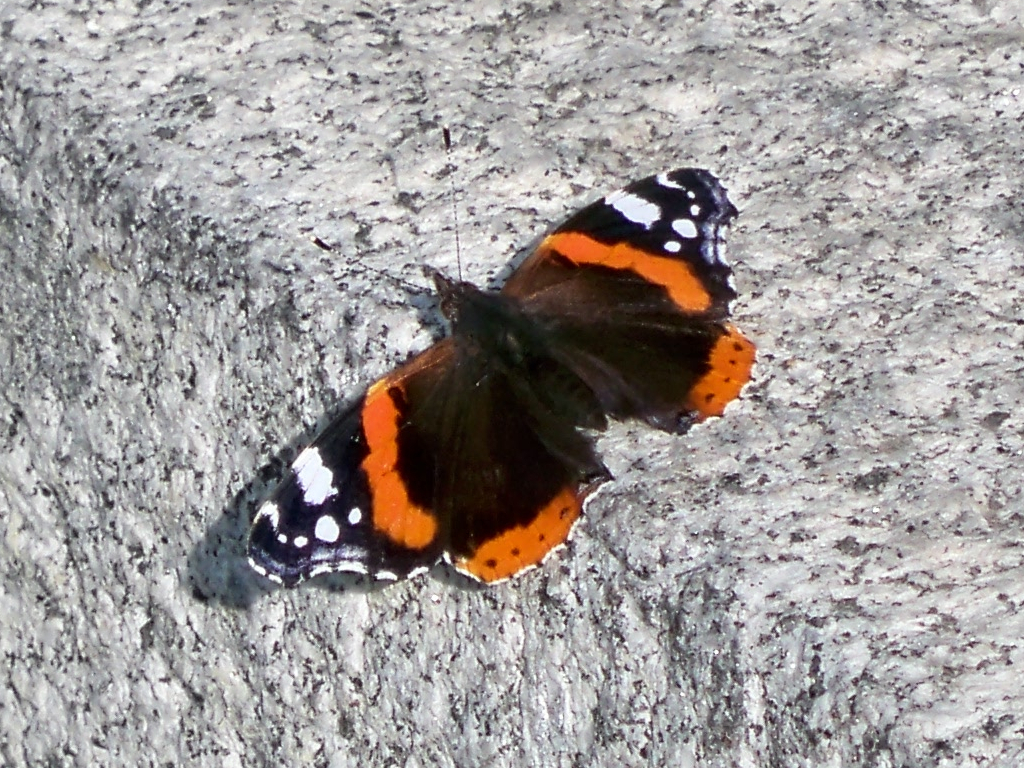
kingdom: Animalia
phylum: Arthropoda
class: Insecta
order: Lepidoptera
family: Nymphalidae
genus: Vanessa
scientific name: Vanessa atalanta
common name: Red admiral
